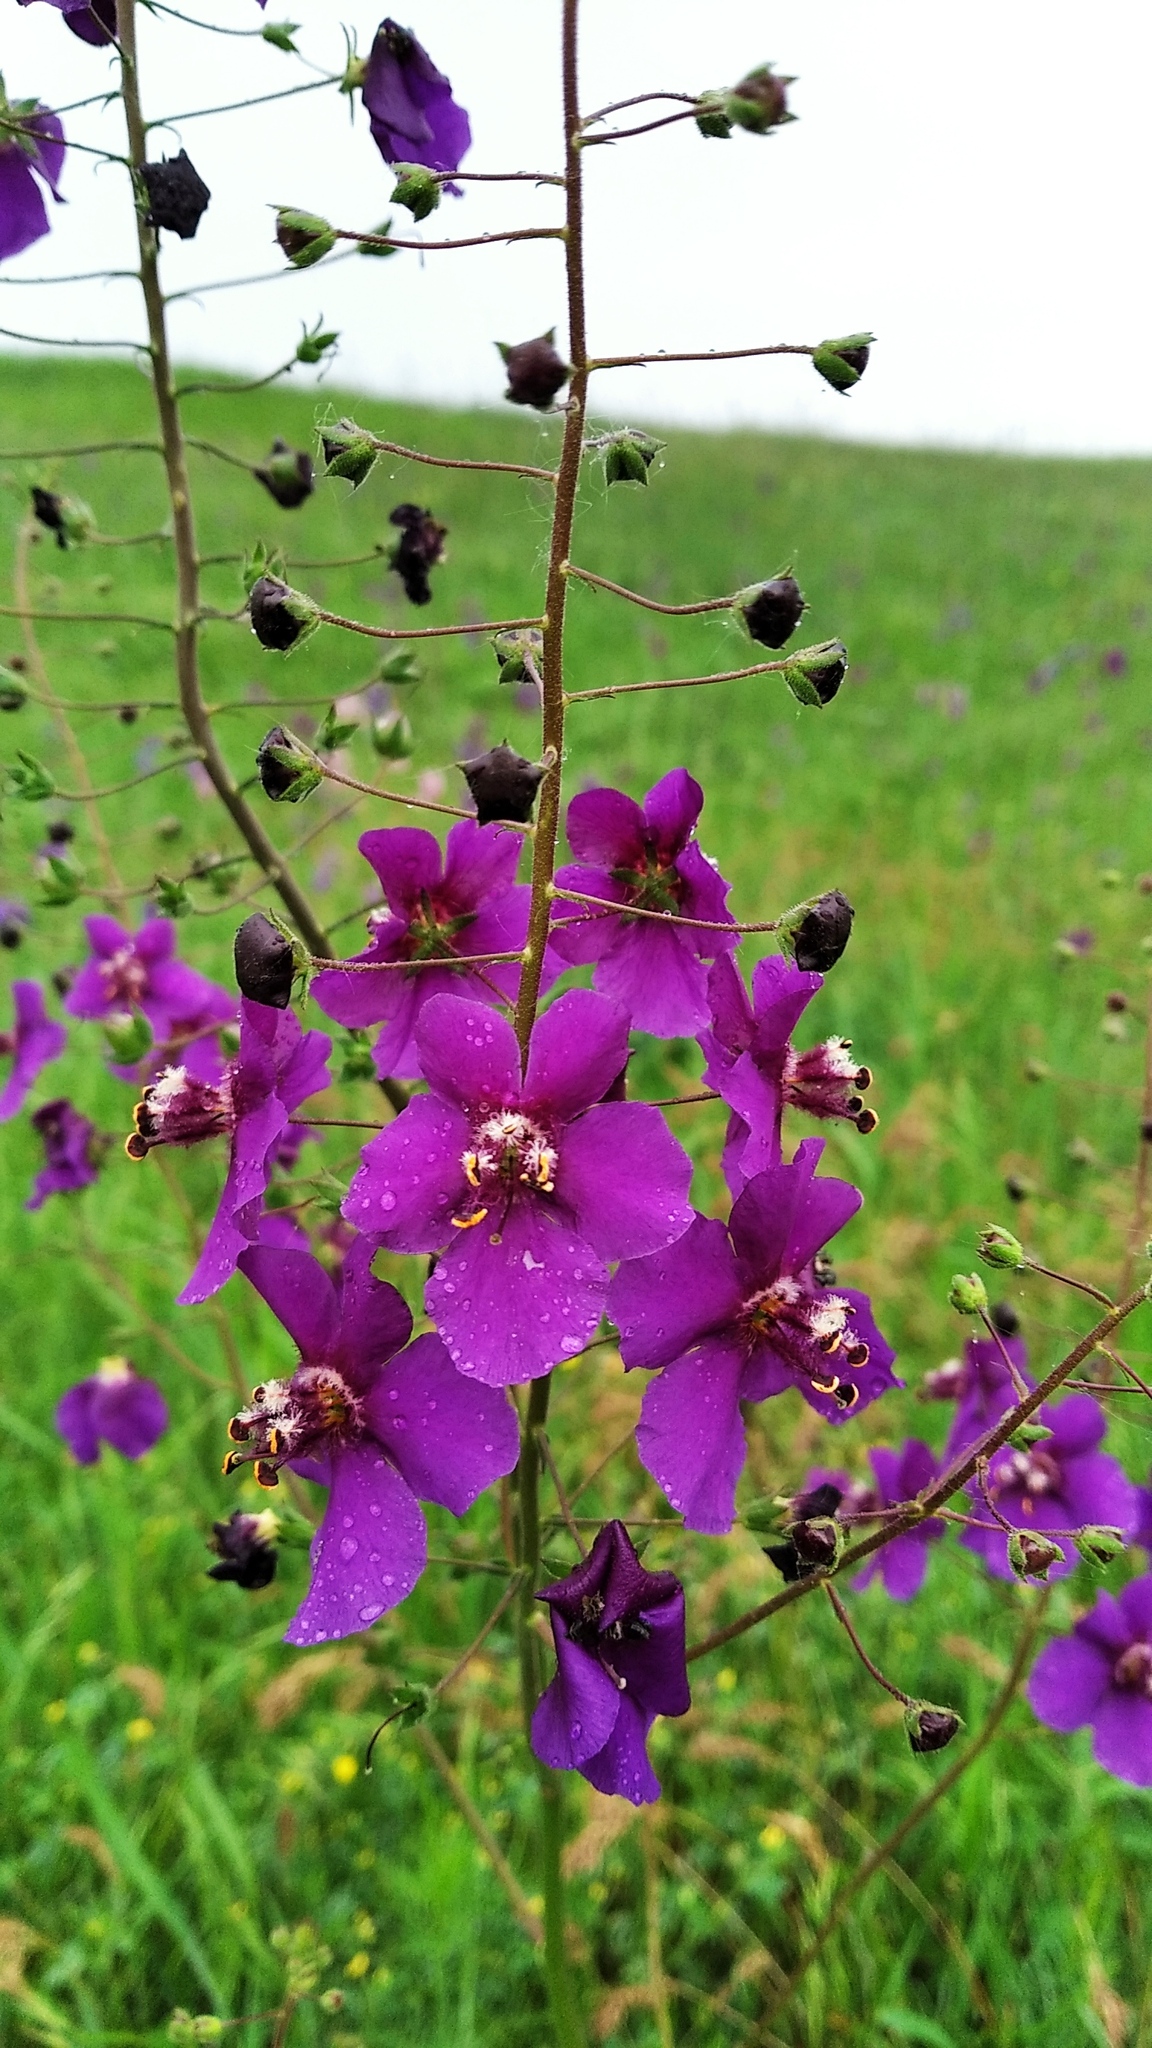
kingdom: Plantae
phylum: Tracheophyta
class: Magnoliopsida
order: Lamiales
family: Scrophulariaceae
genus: Verbascum
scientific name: Verbascum phoeniceum
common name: Purple mullein
